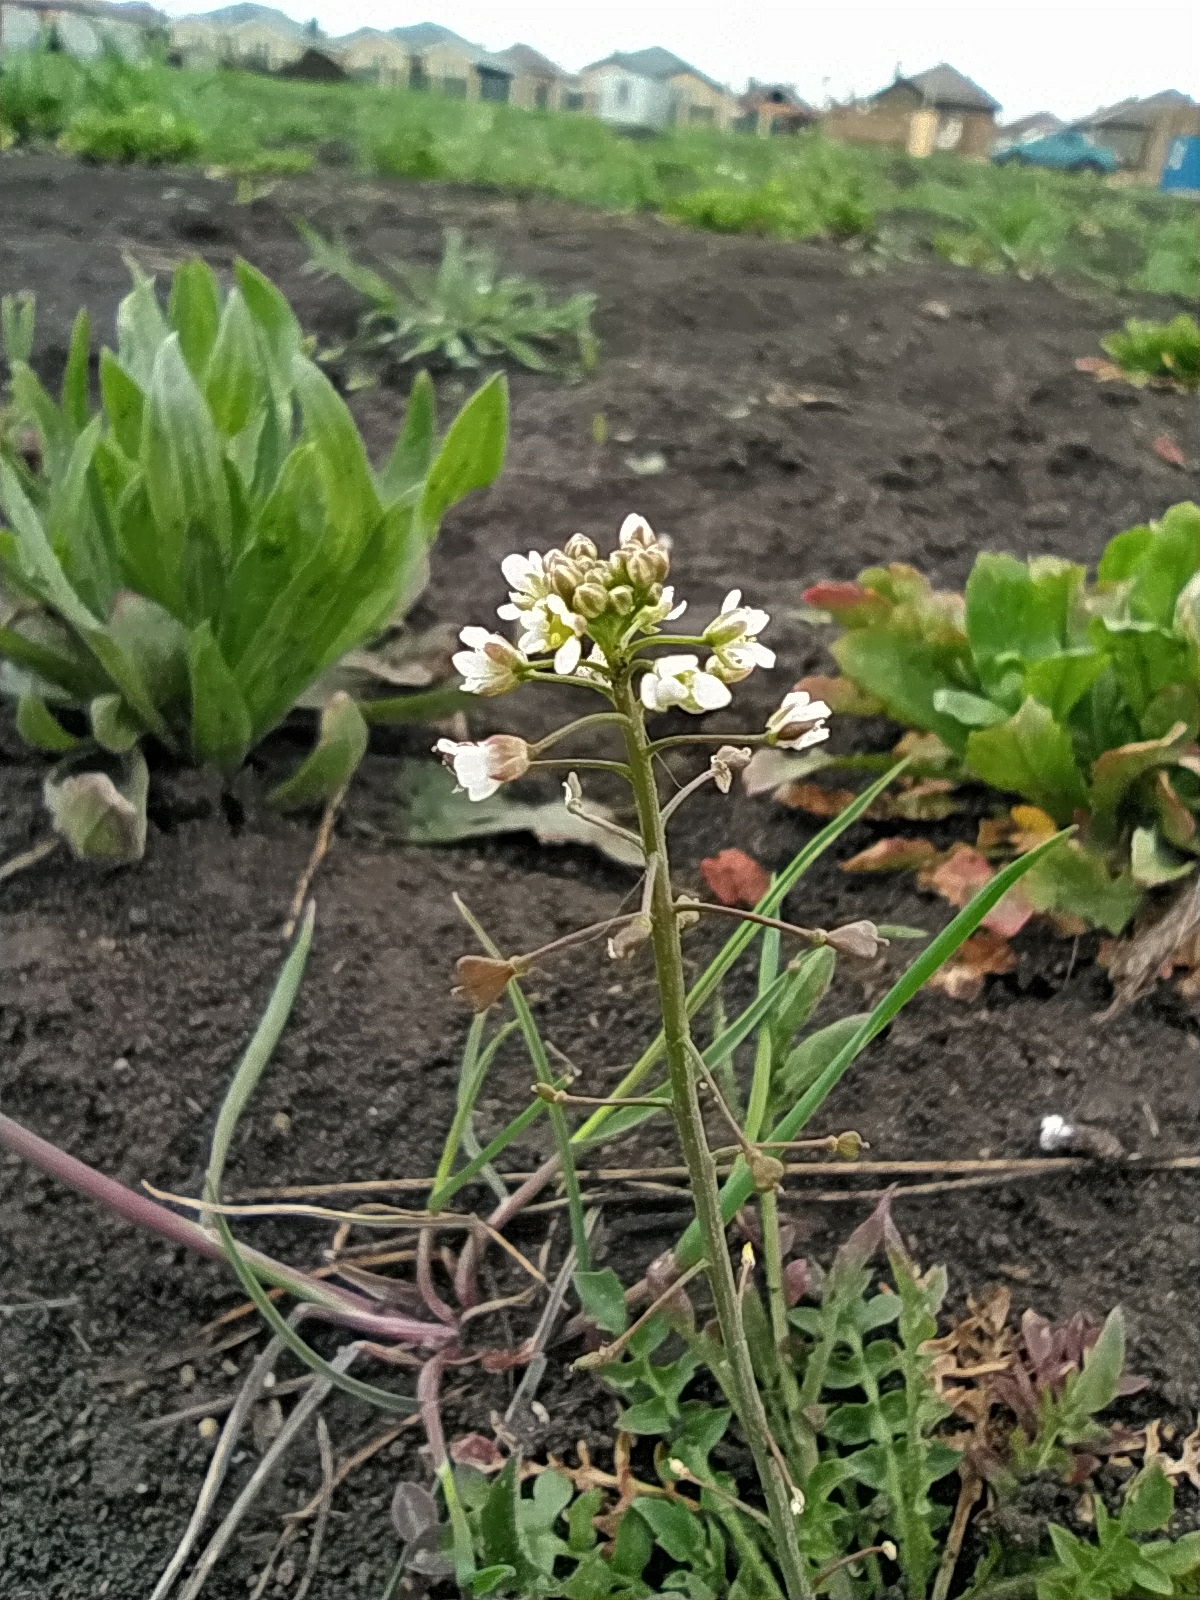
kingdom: Plantae
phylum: Tracheophyta
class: Magnoliopsida
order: Brassicales
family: Brassicaceae
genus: Capsella
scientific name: Capsella bursa-pastoris
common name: Shepherd's purse
